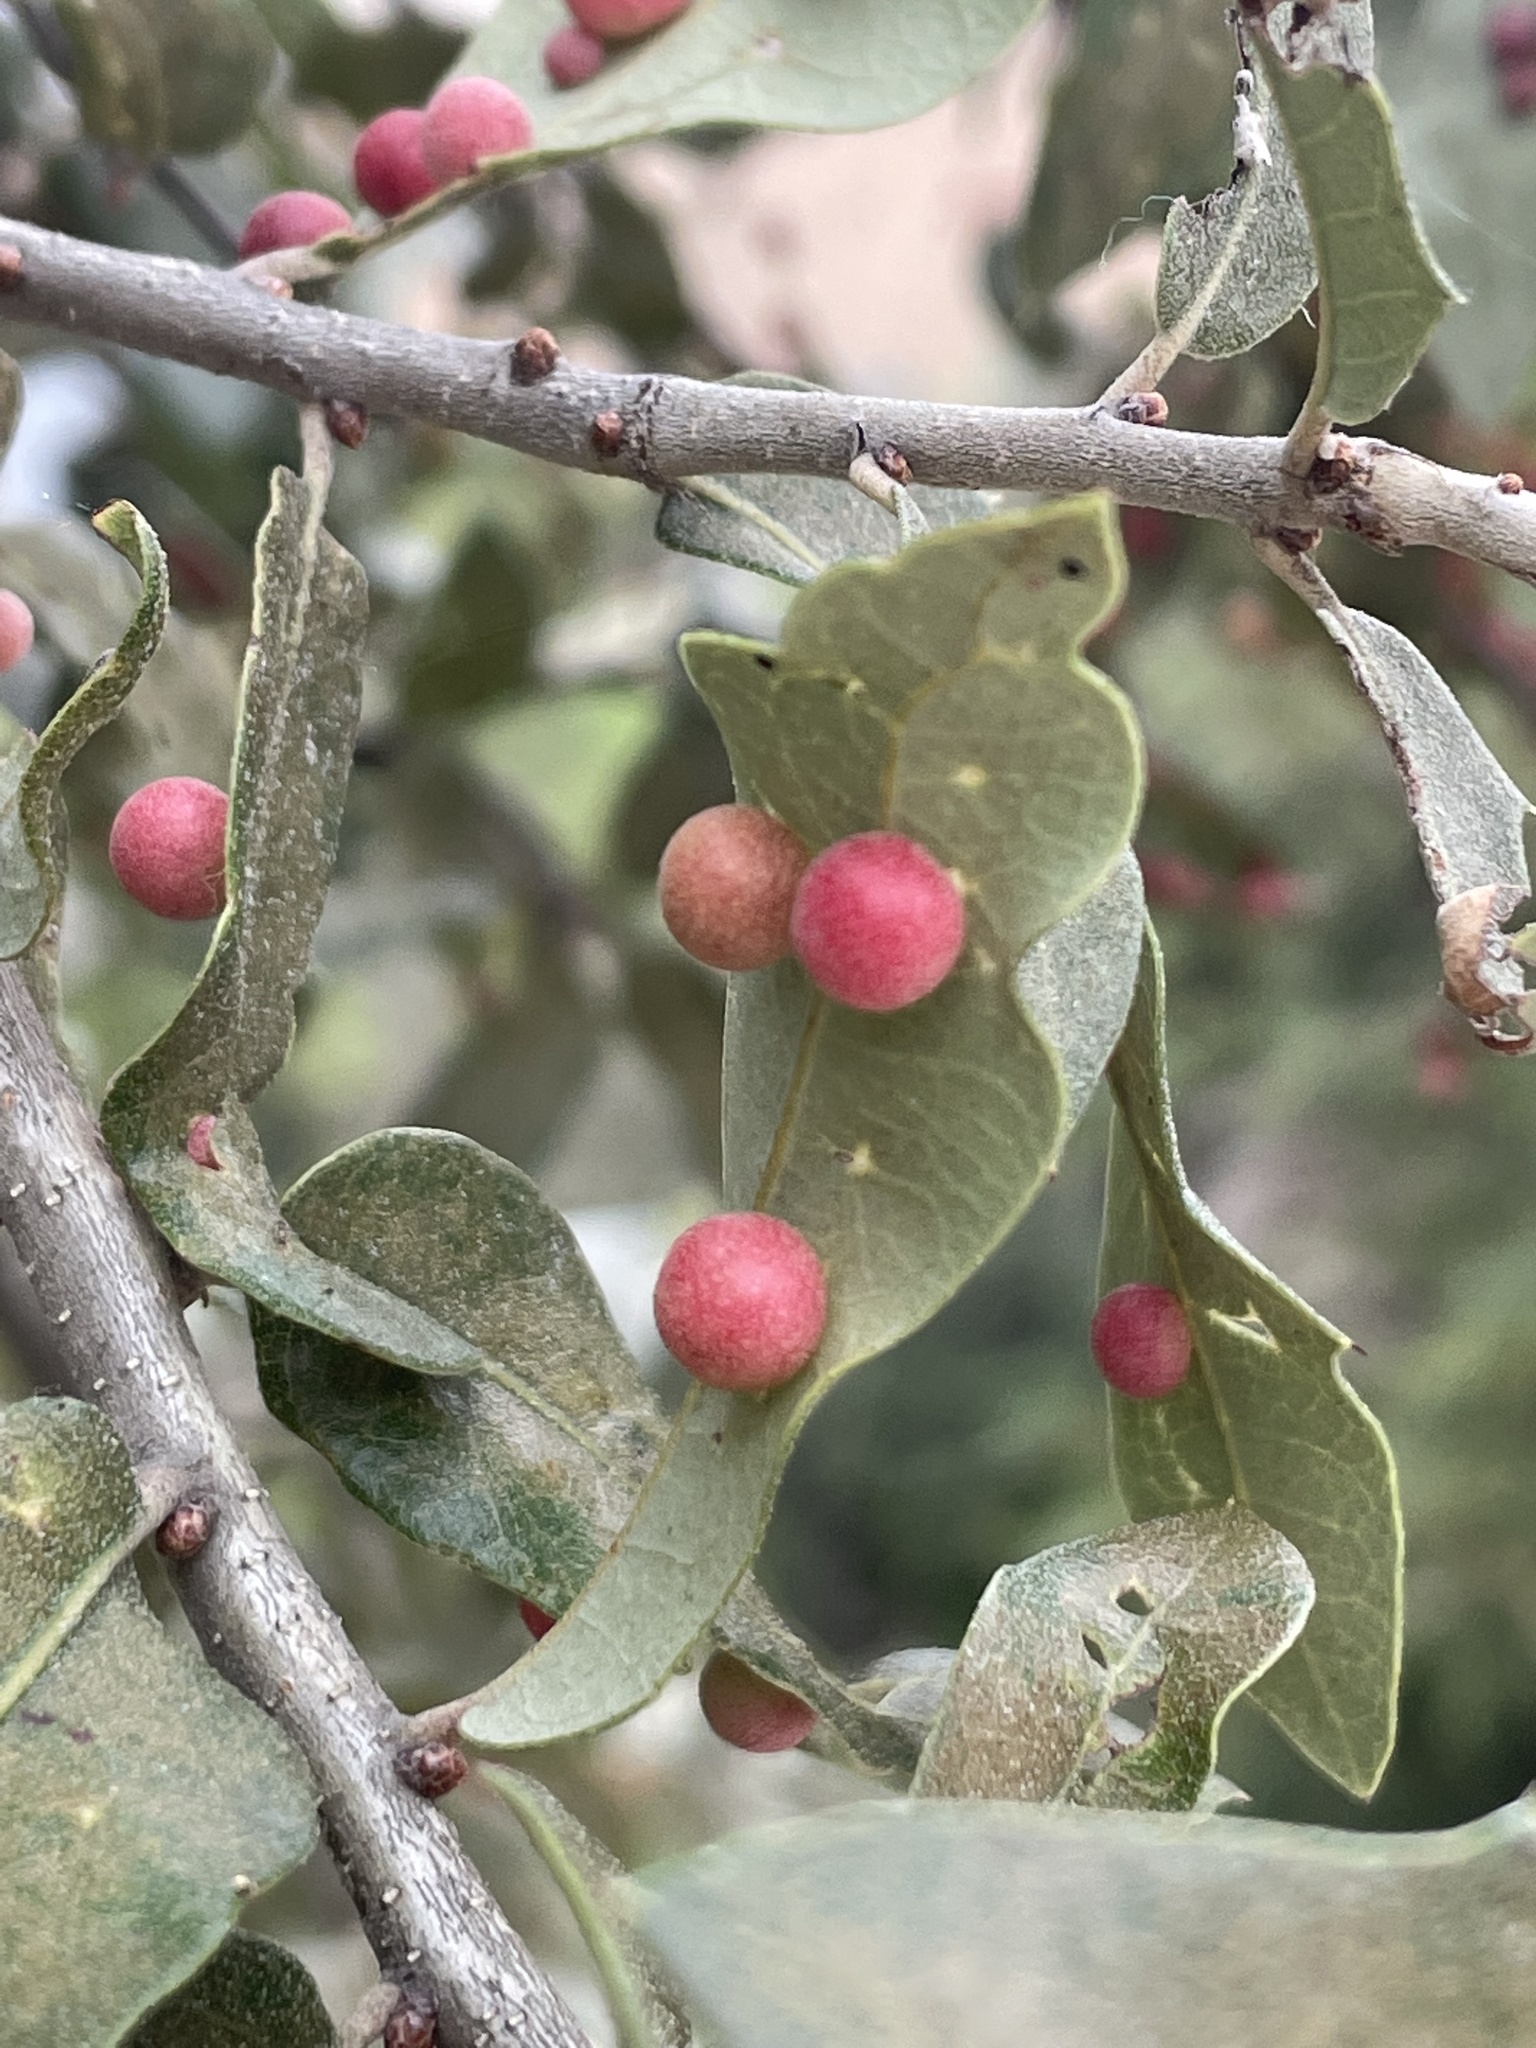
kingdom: Animalia
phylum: Arthropoda
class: Insecta
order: Hymenoptera
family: Cynipidae
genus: Belonocnema
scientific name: Belonocnema kinseyi
